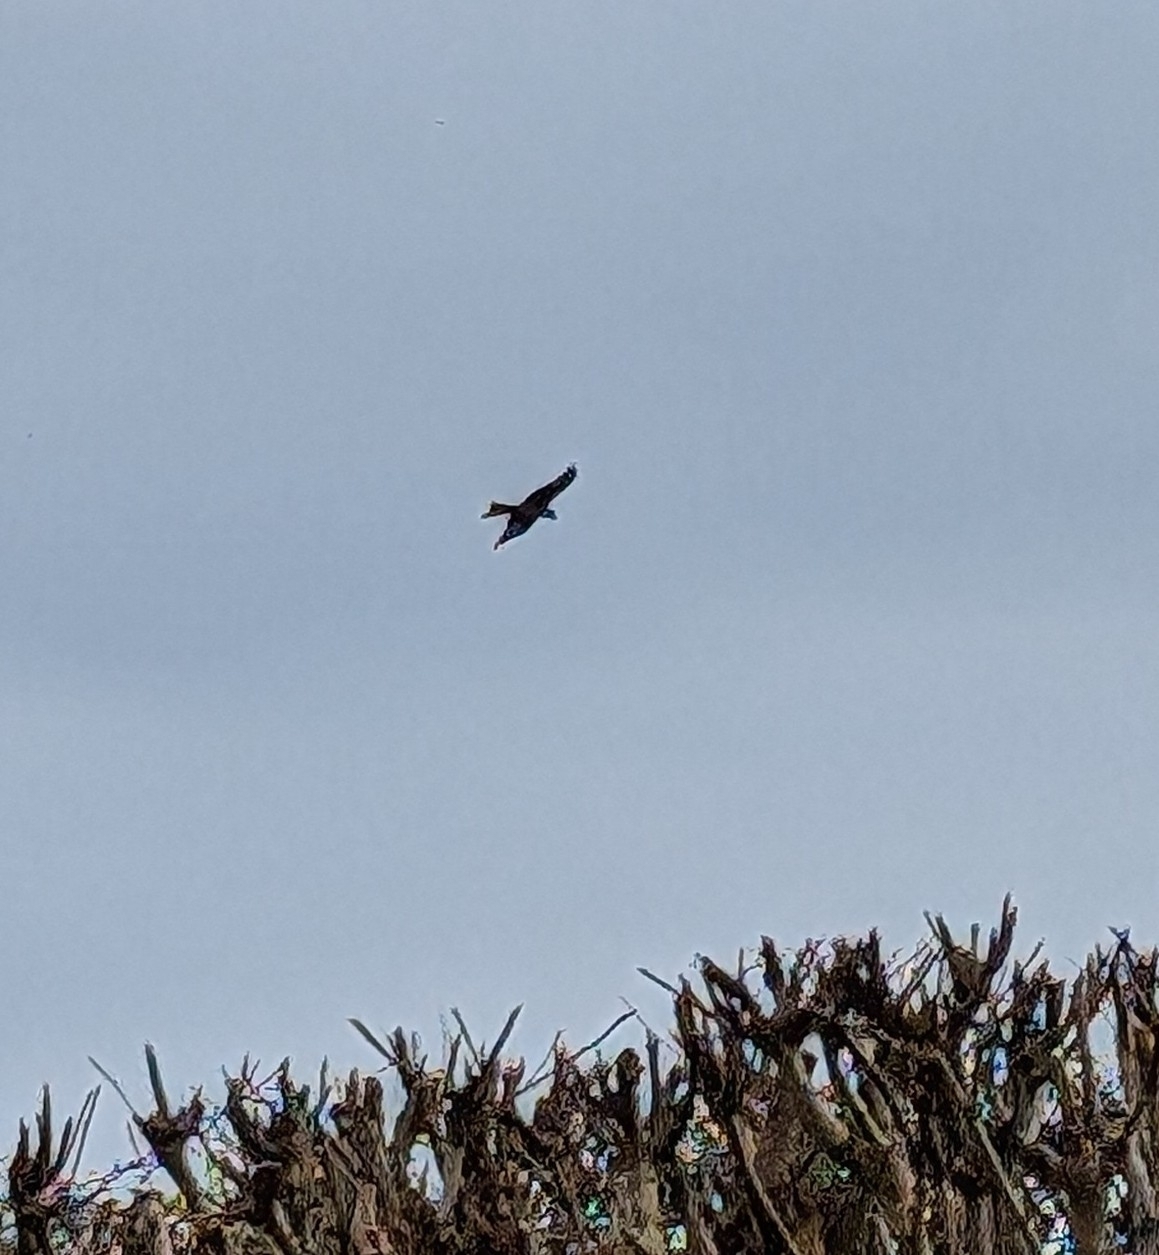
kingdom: Animalia
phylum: Chordata
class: Aves
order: Accipitriformes
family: Accipitridae
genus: Milvus
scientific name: Milvus milvus
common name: Red kite
